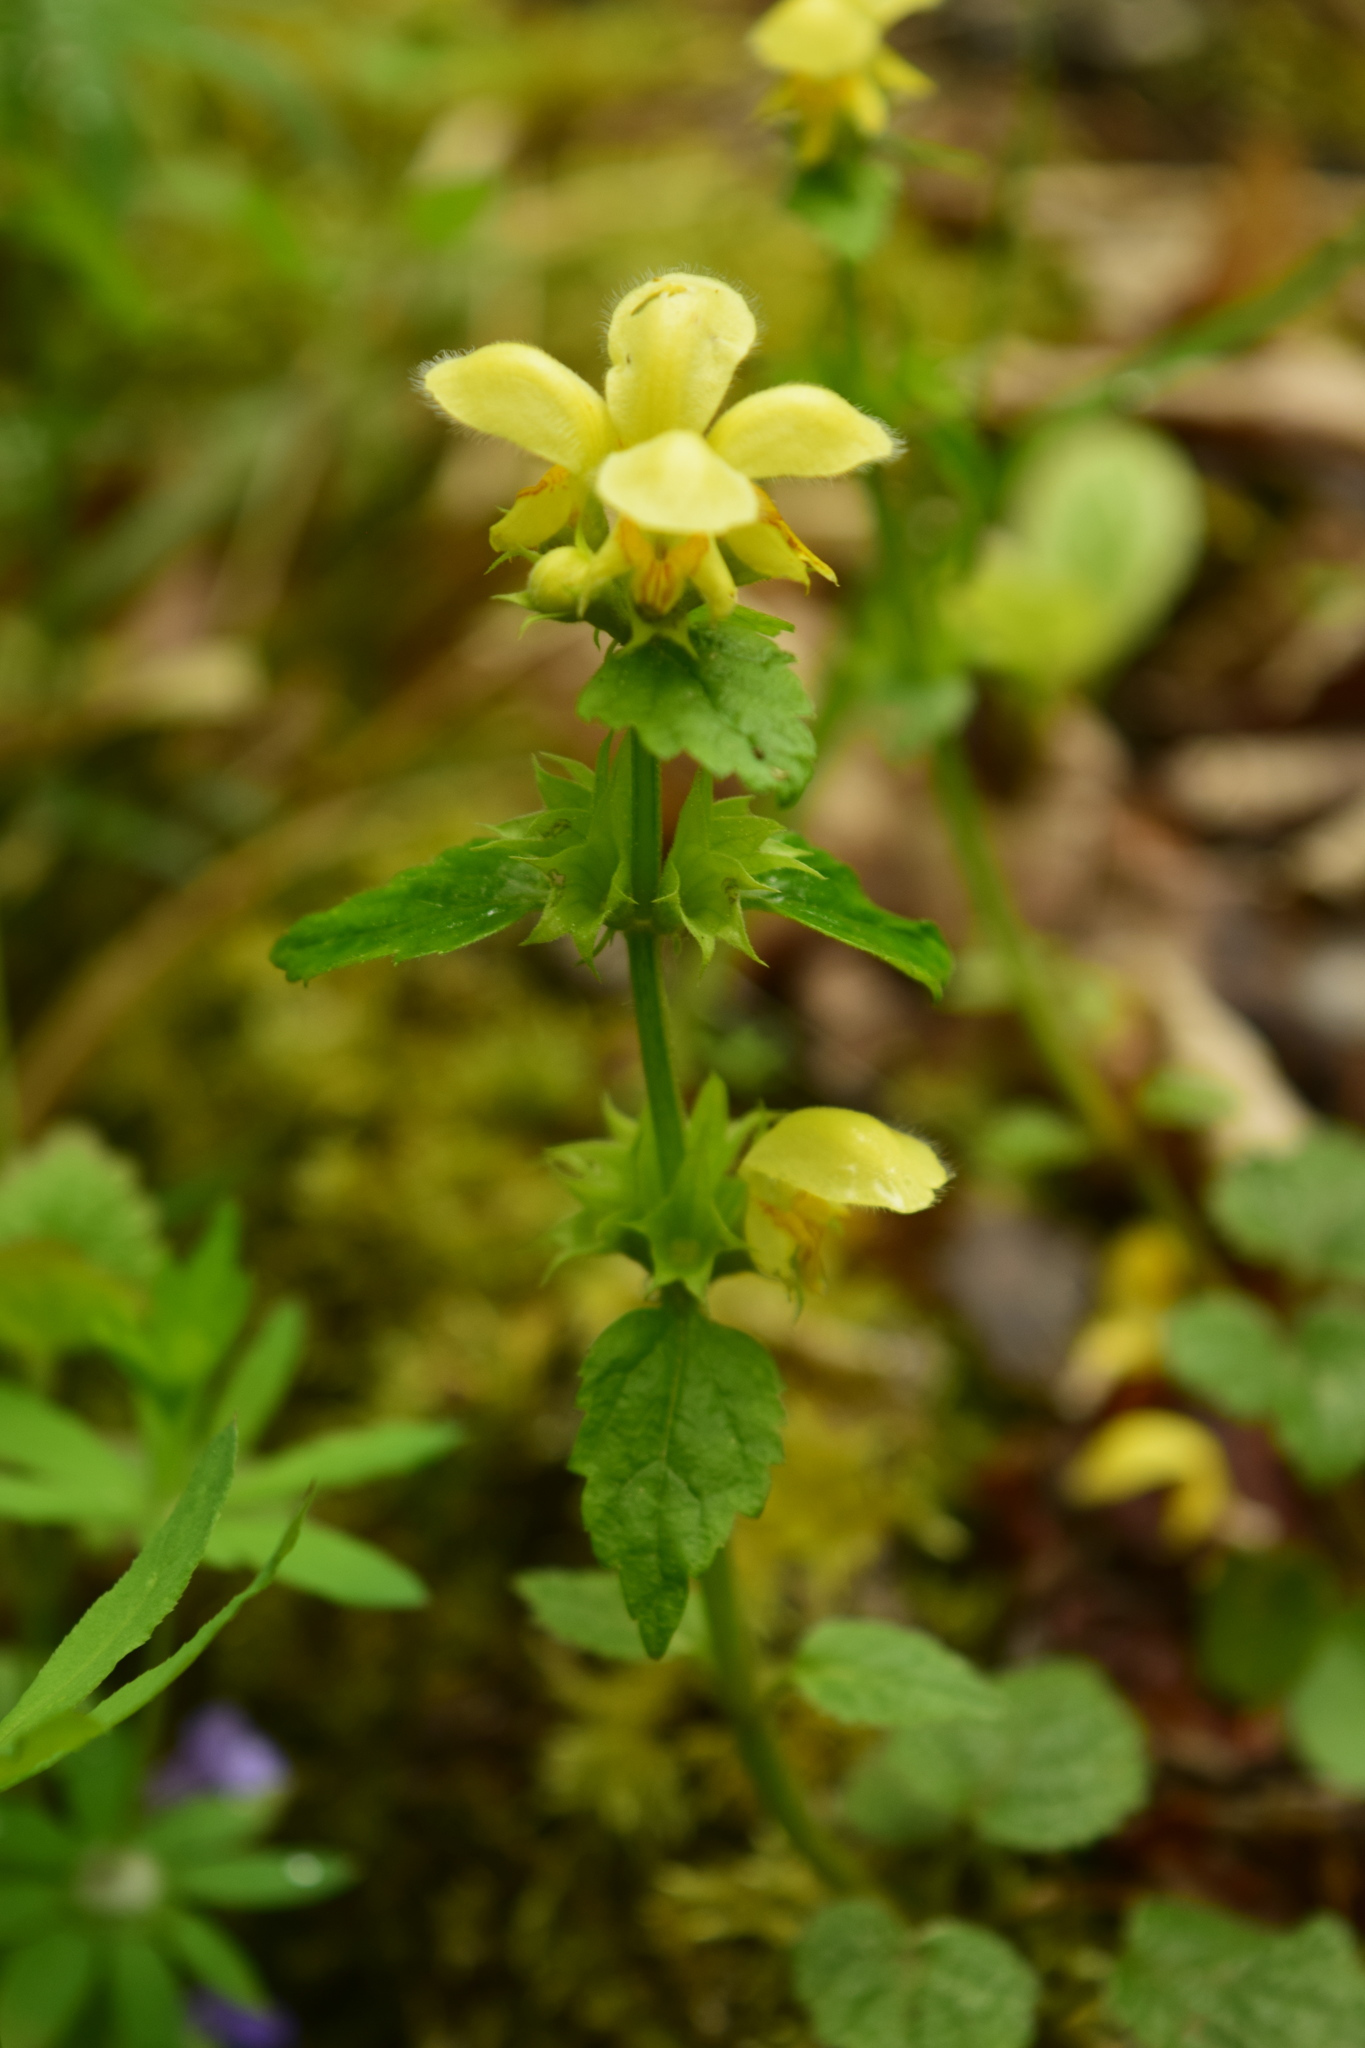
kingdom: Plantae
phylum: Tracheophyta
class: Magnoliopsida
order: Lamiales
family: Lamiaceae
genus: Lamium
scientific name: Lamium galeobdolon
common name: Yellow archangel
